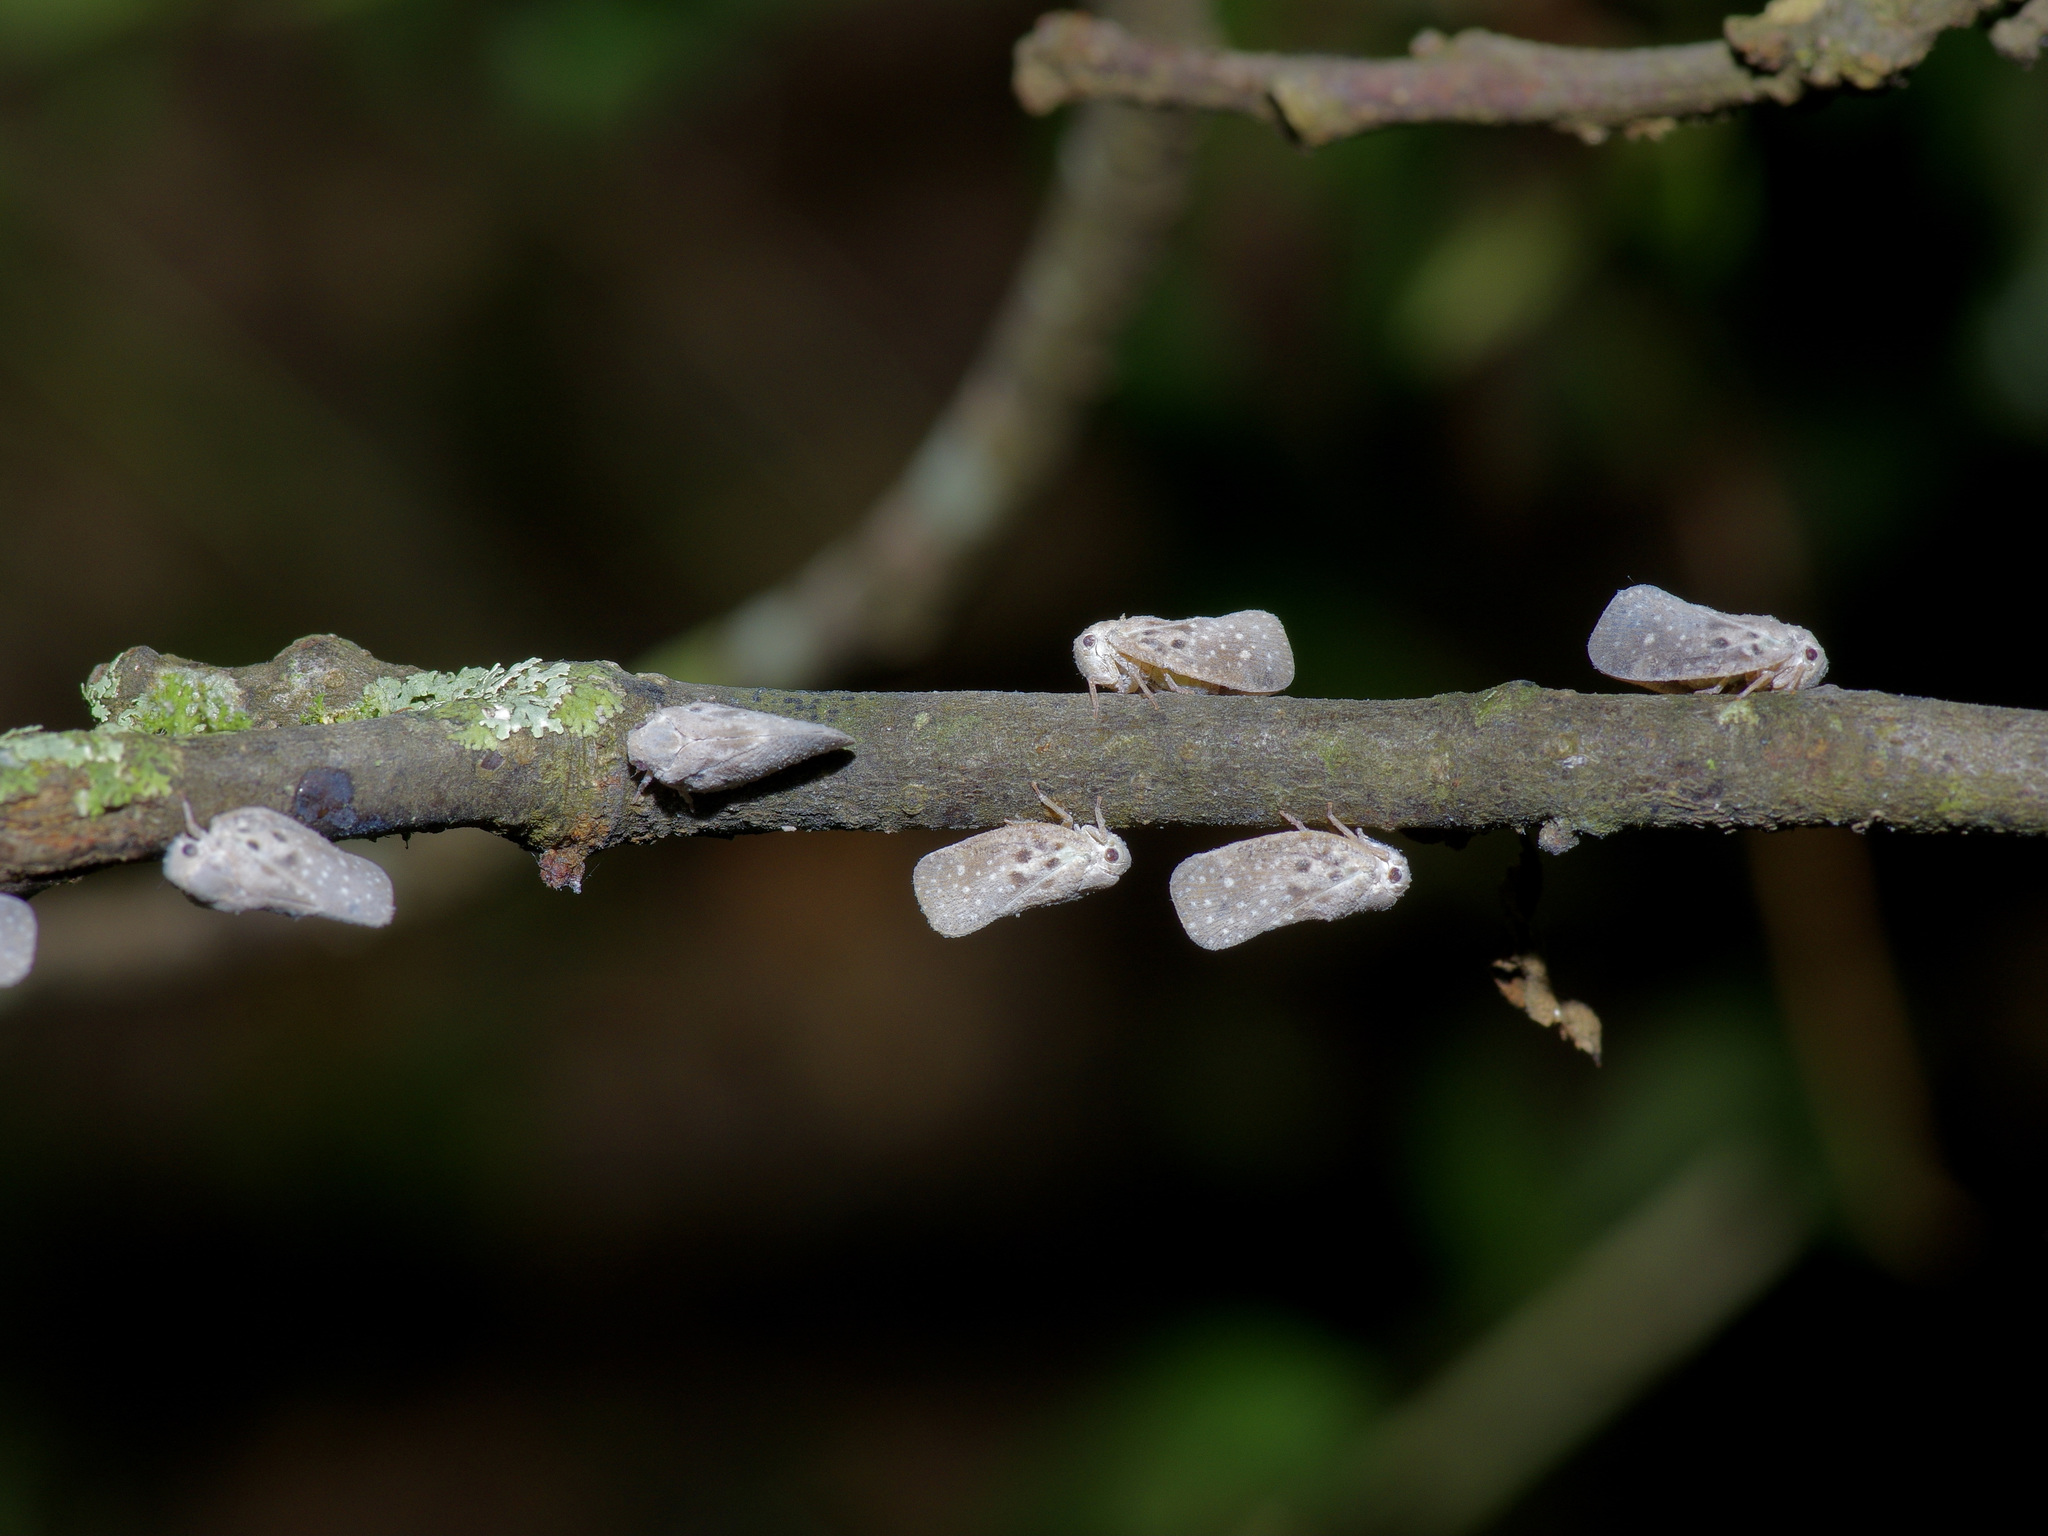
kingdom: Animalia
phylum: Arthropoda
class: Insecta
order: Hemiptera
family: Flatidae
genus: Metcalfa
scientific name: Metcalfa pruinosa
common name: Citrus flatid planthopper
